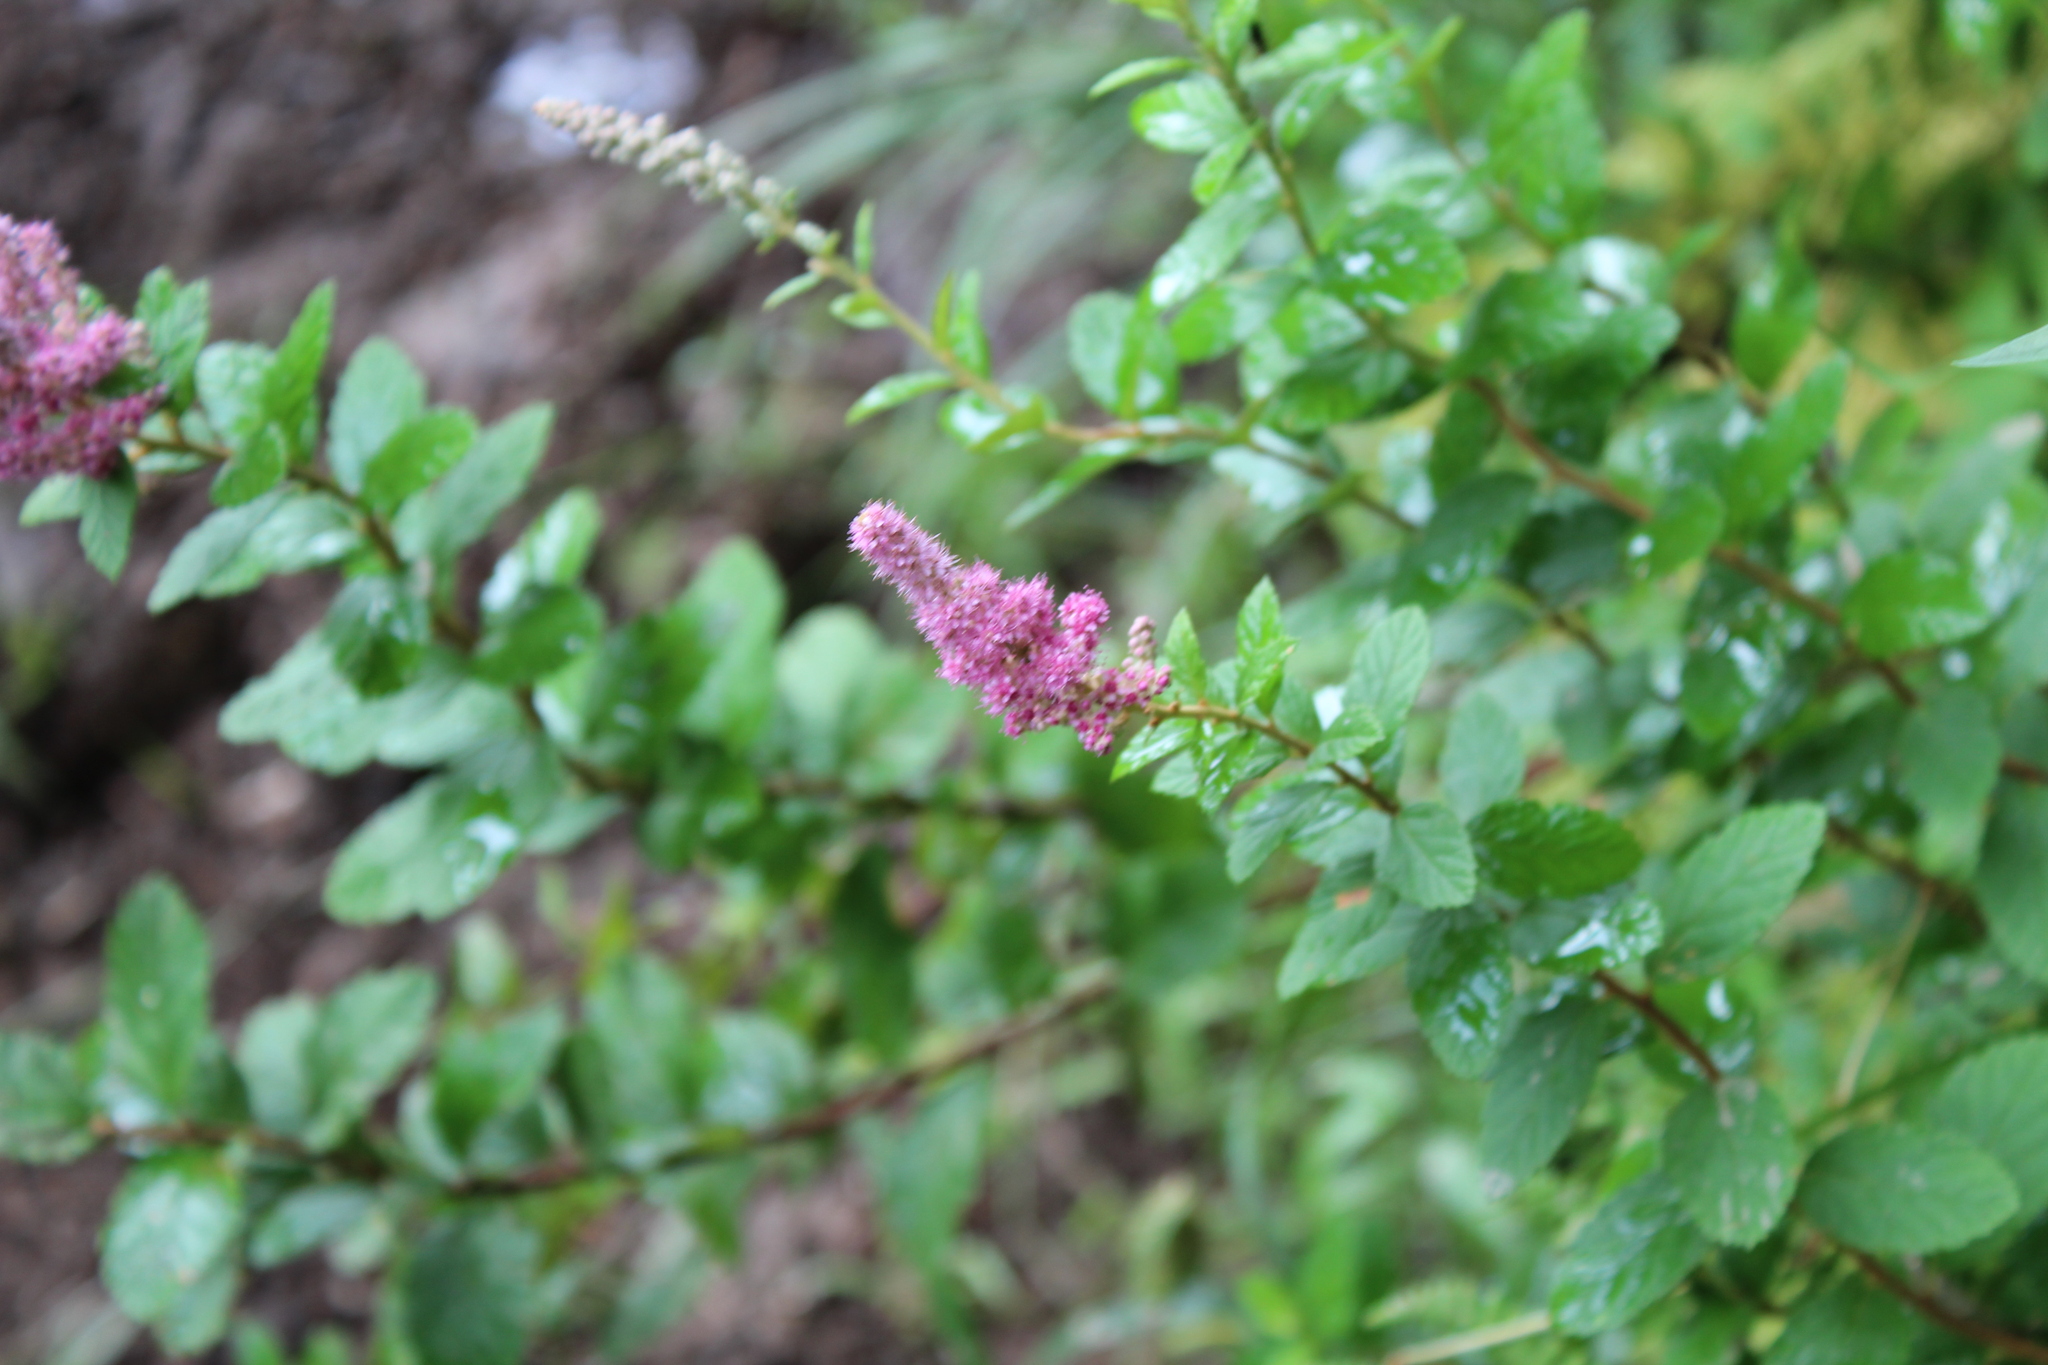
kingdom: Plantae
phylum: Tracheophyta
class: Magnoliopsida
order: Rosales
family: Rosaceae
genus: Spiraea
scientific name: Spiraea tomentosa
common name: Hardhack
